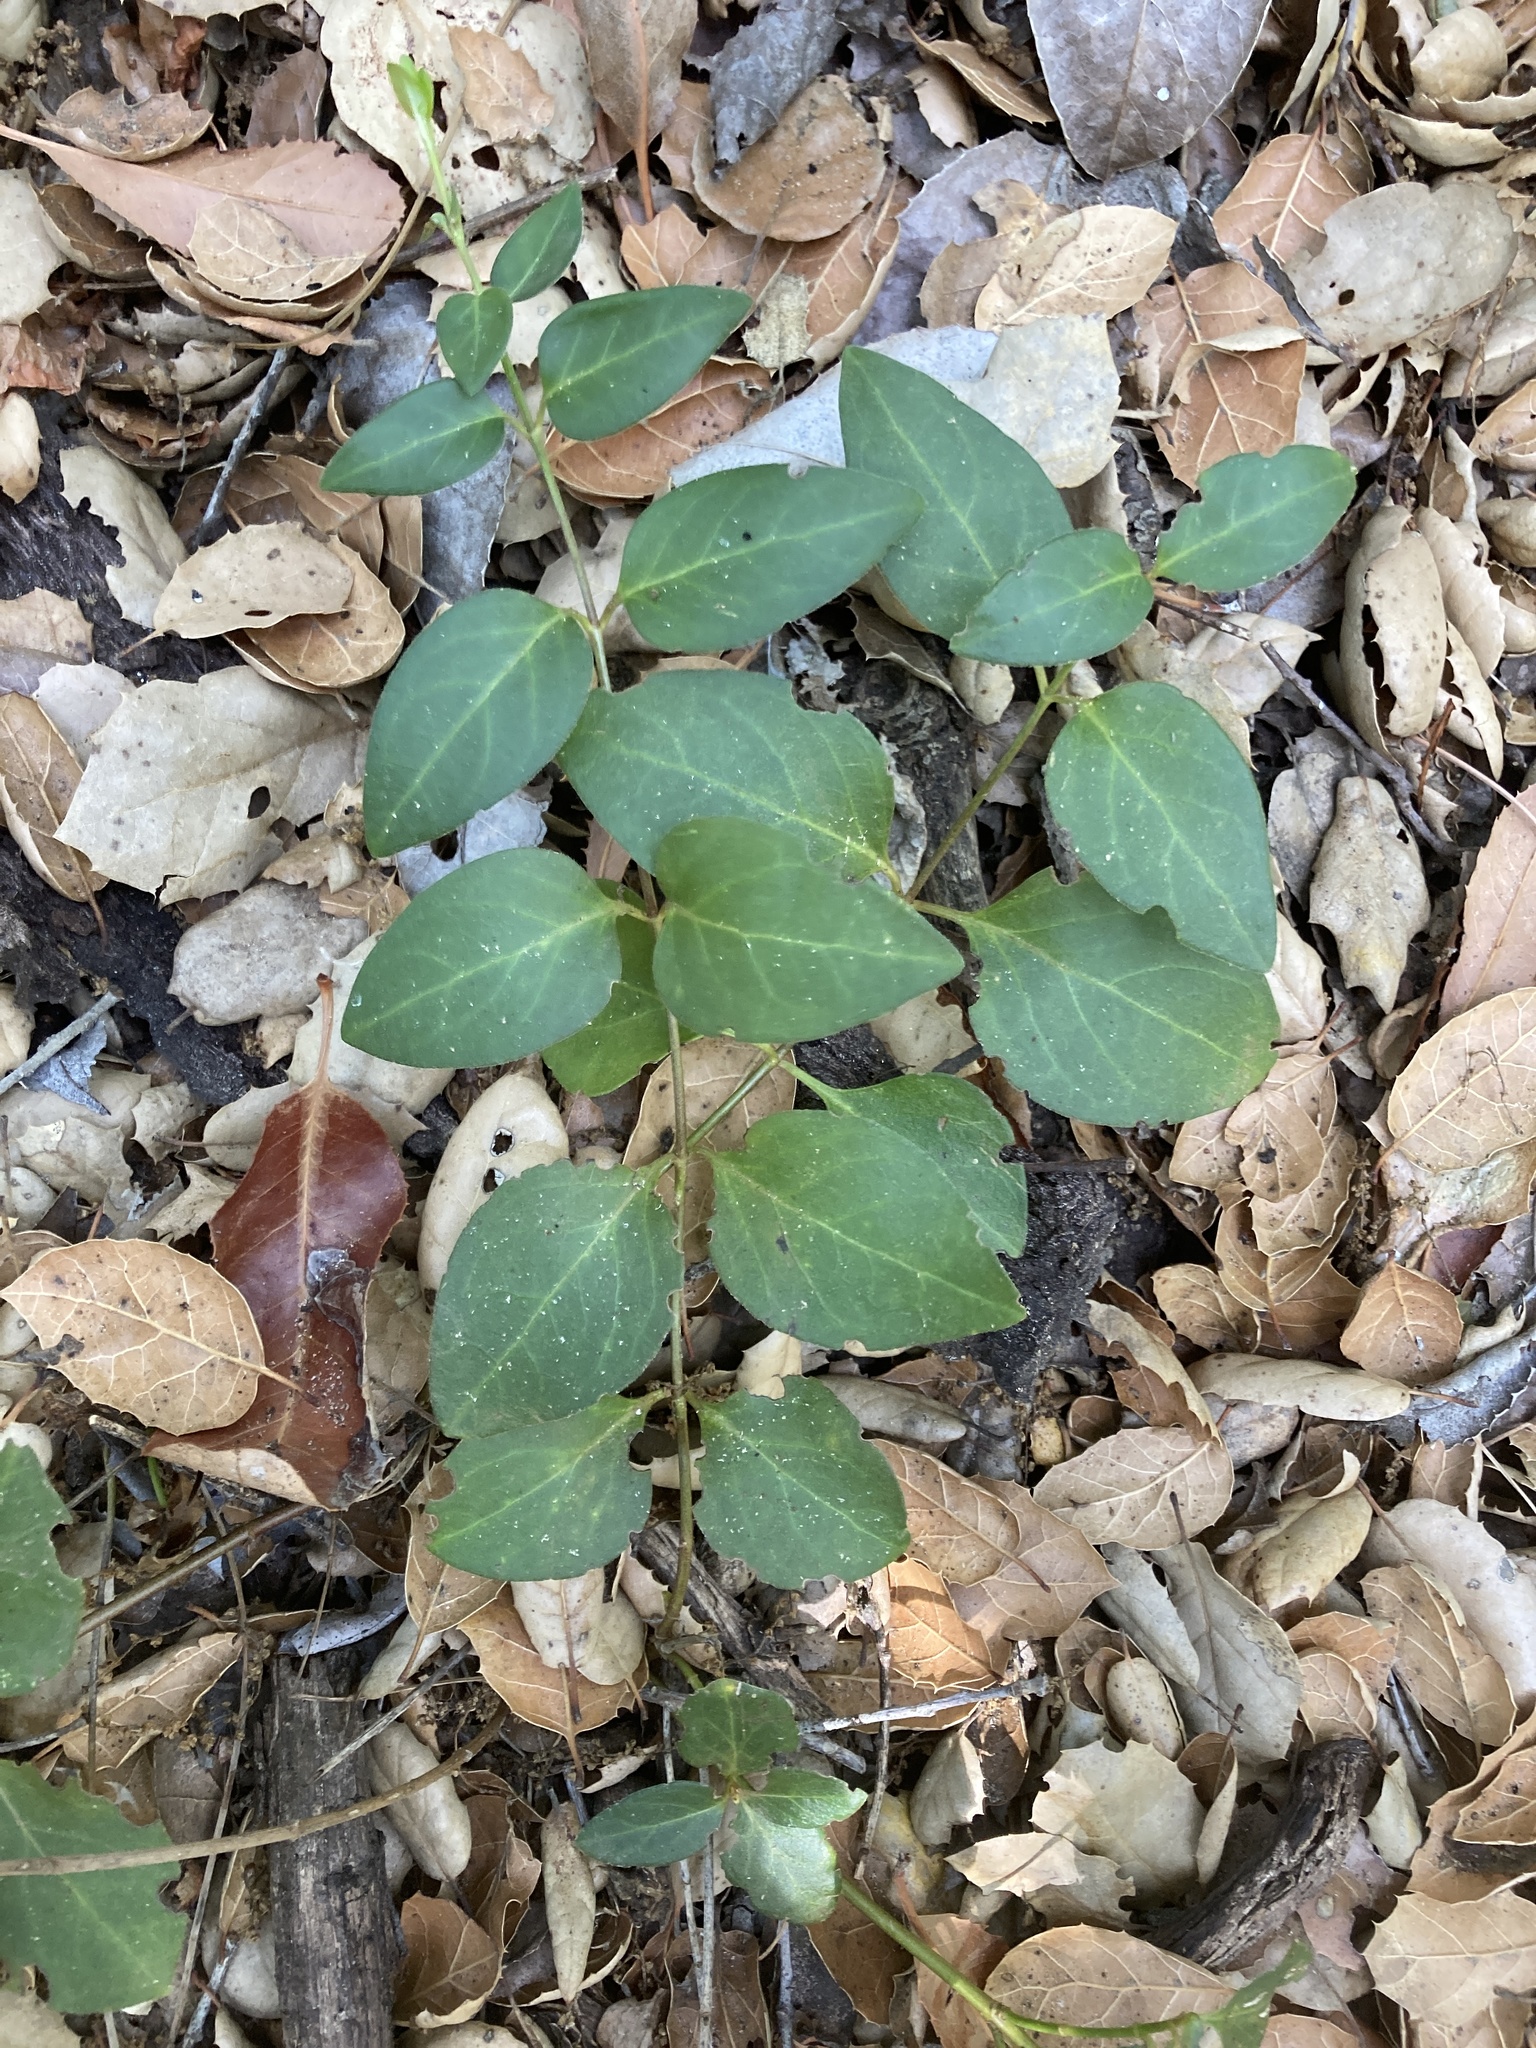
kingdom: Plantae
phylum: Tracheophyta
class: Magnoliopsida
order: Gentianales
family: Apocynaceae
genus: Vinca
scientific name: Vinca major
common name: Greater periwinkle
